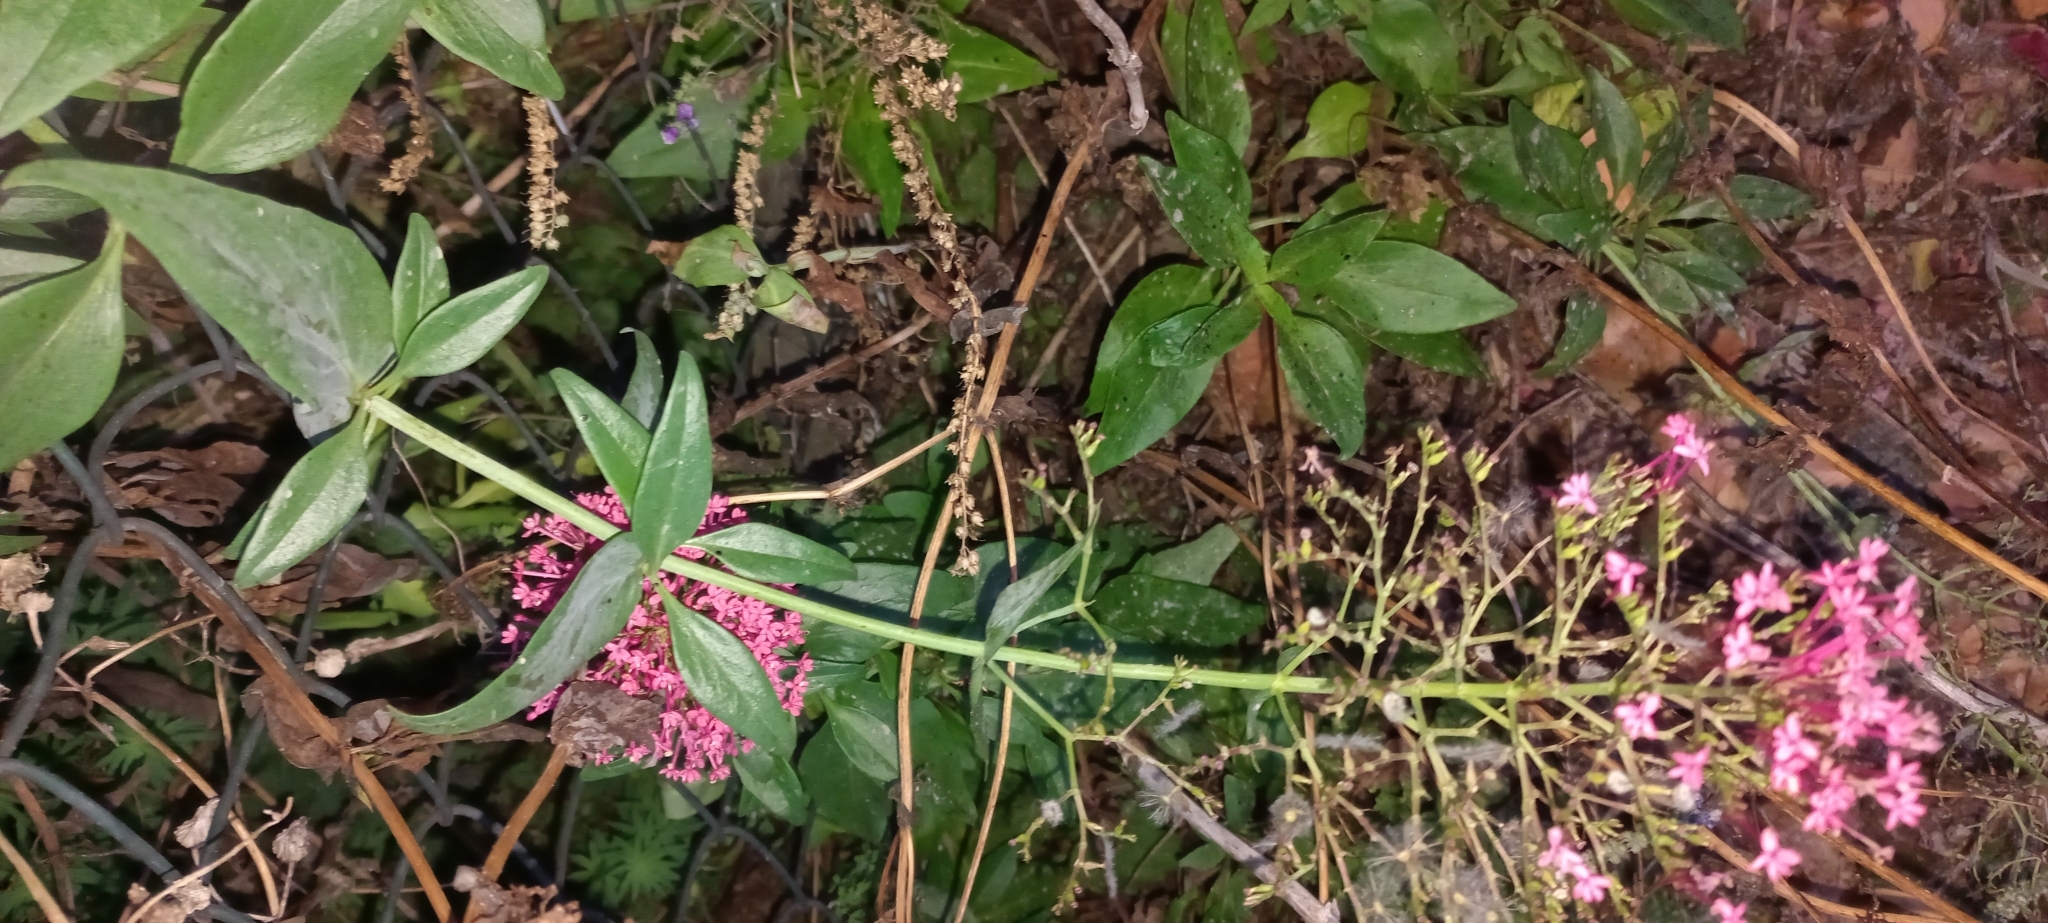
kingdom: Plantae
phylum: Tracheophyta
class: Magnoliopsida
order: Dipsacales
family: Caprifoliaceae
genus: Centranthus
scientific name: Centranthus ruber
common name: Red valerian
